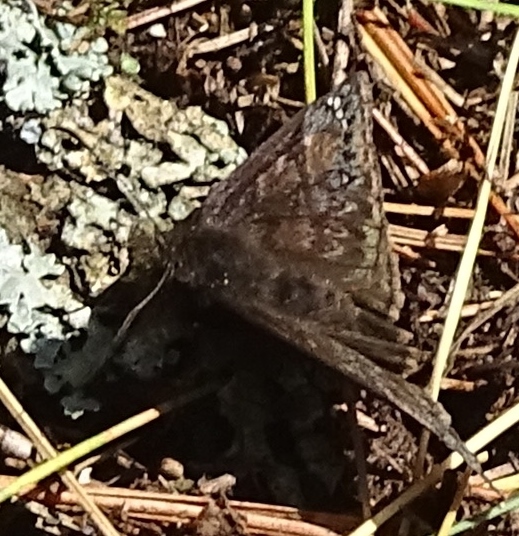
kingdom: Animalia
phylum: Arthropoda
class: Insecta
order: Lepidoptera
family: Hesperiidae
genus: Erynnis
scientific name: Erynnis juvenalis
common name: Juvenal's duskywing
